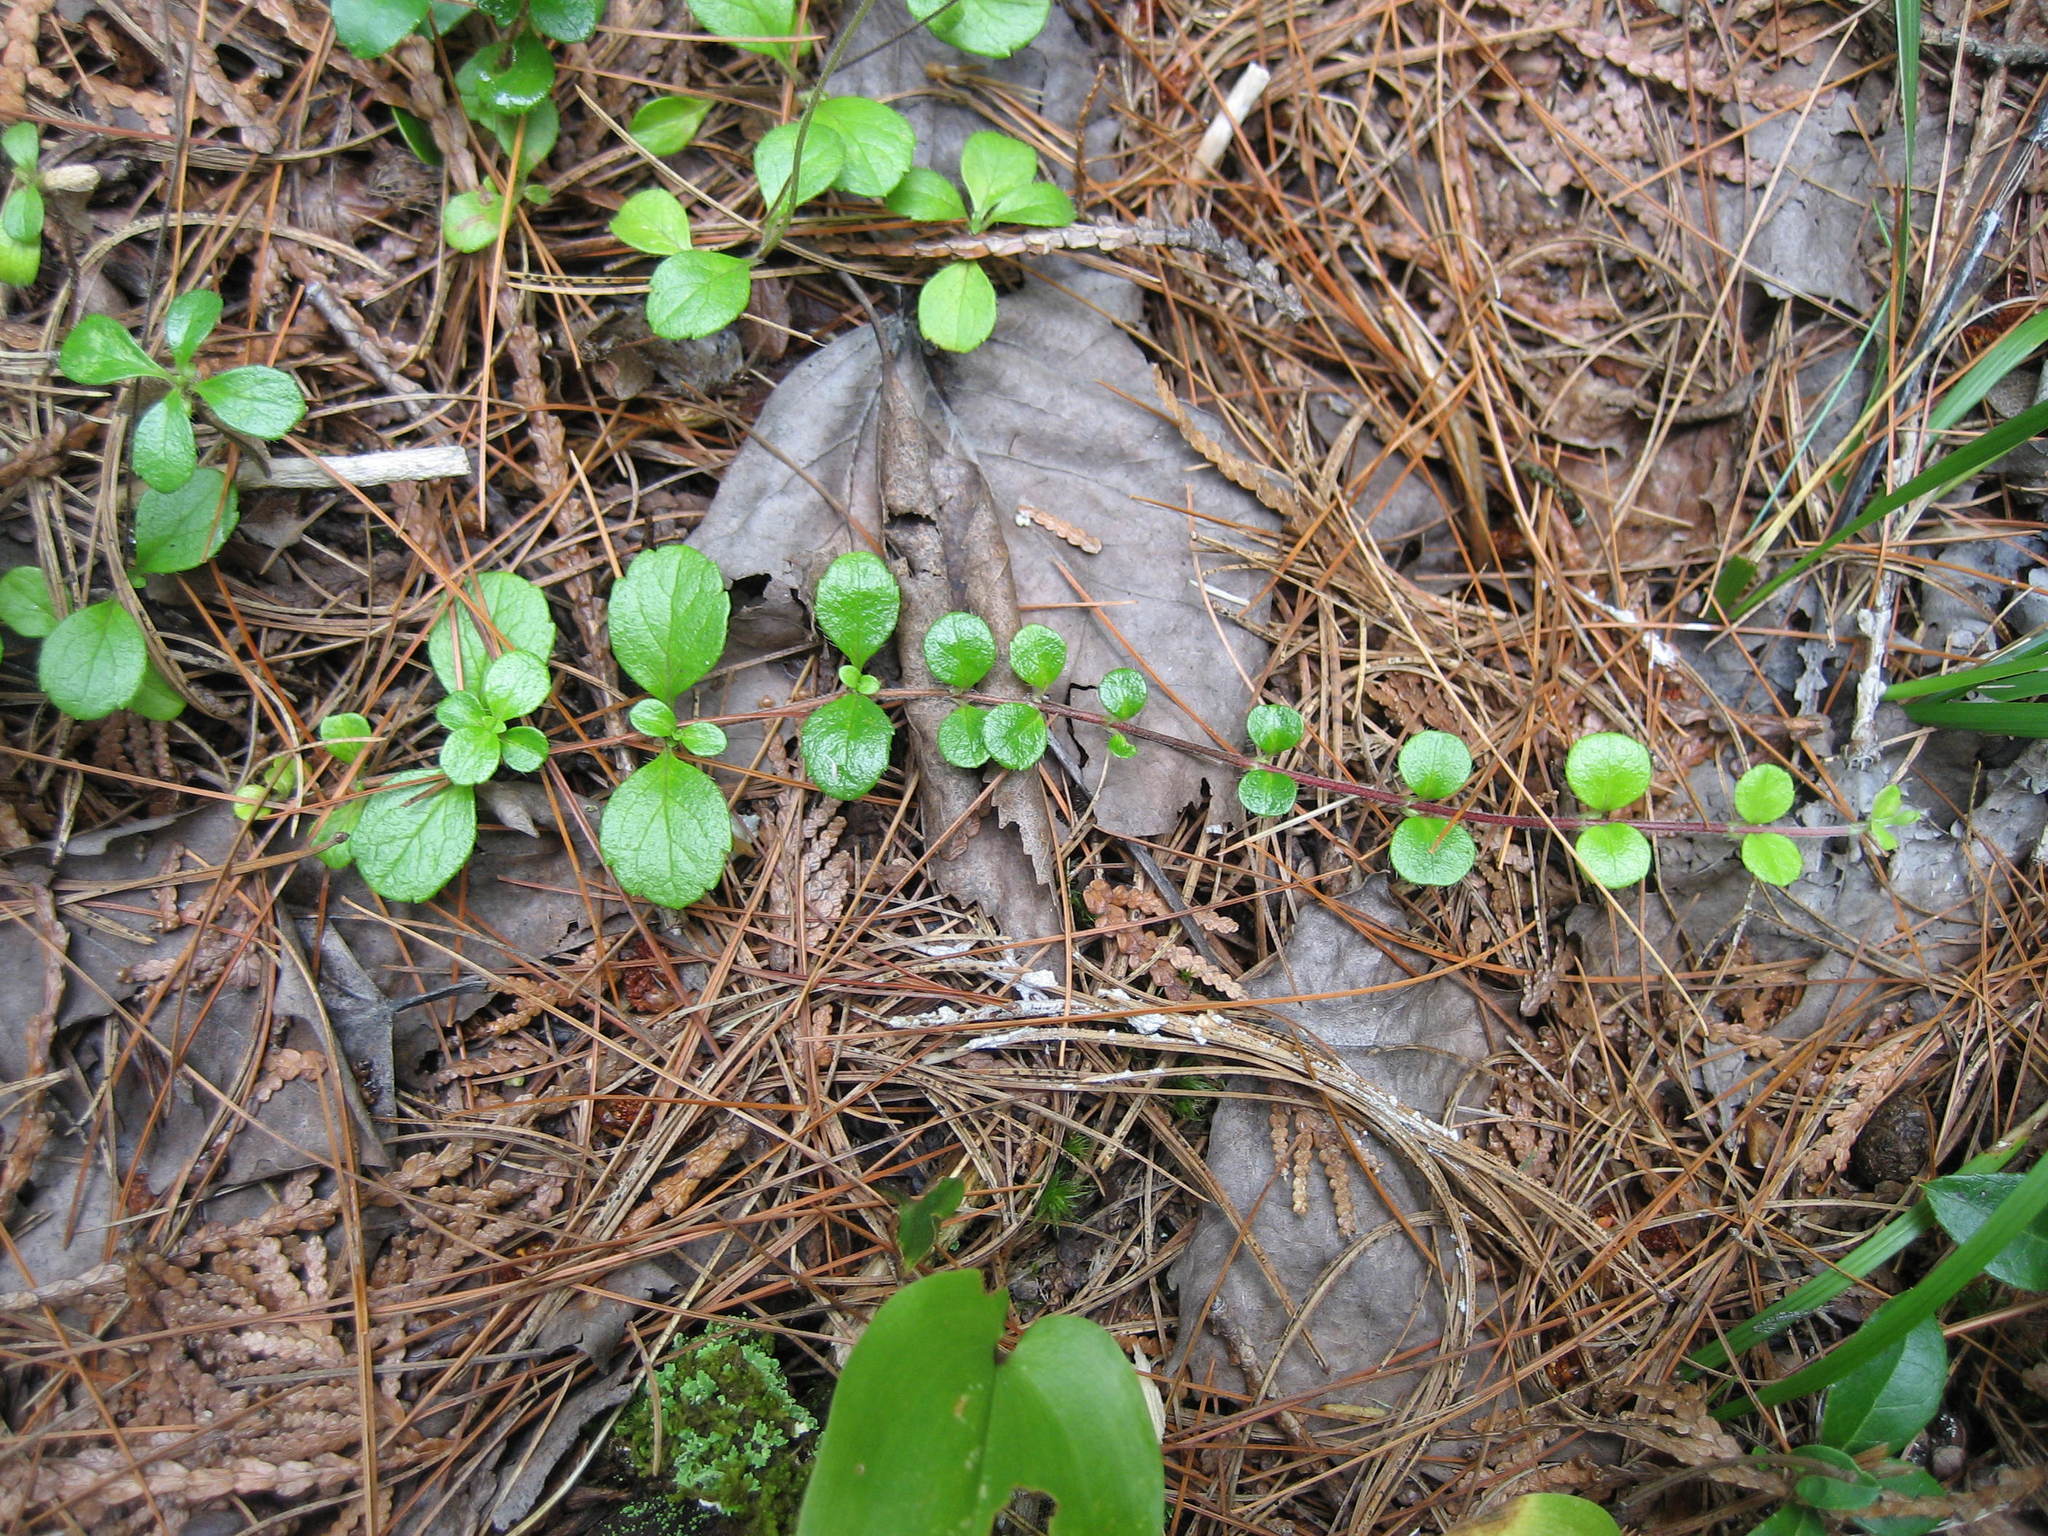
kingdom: Plantae
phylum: Tracheophyta
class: Magnoliopsida
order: Dipsacales
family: Caprifoliaceae
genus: Linnaea
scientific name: Linnaea borealis
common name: Twinflower
